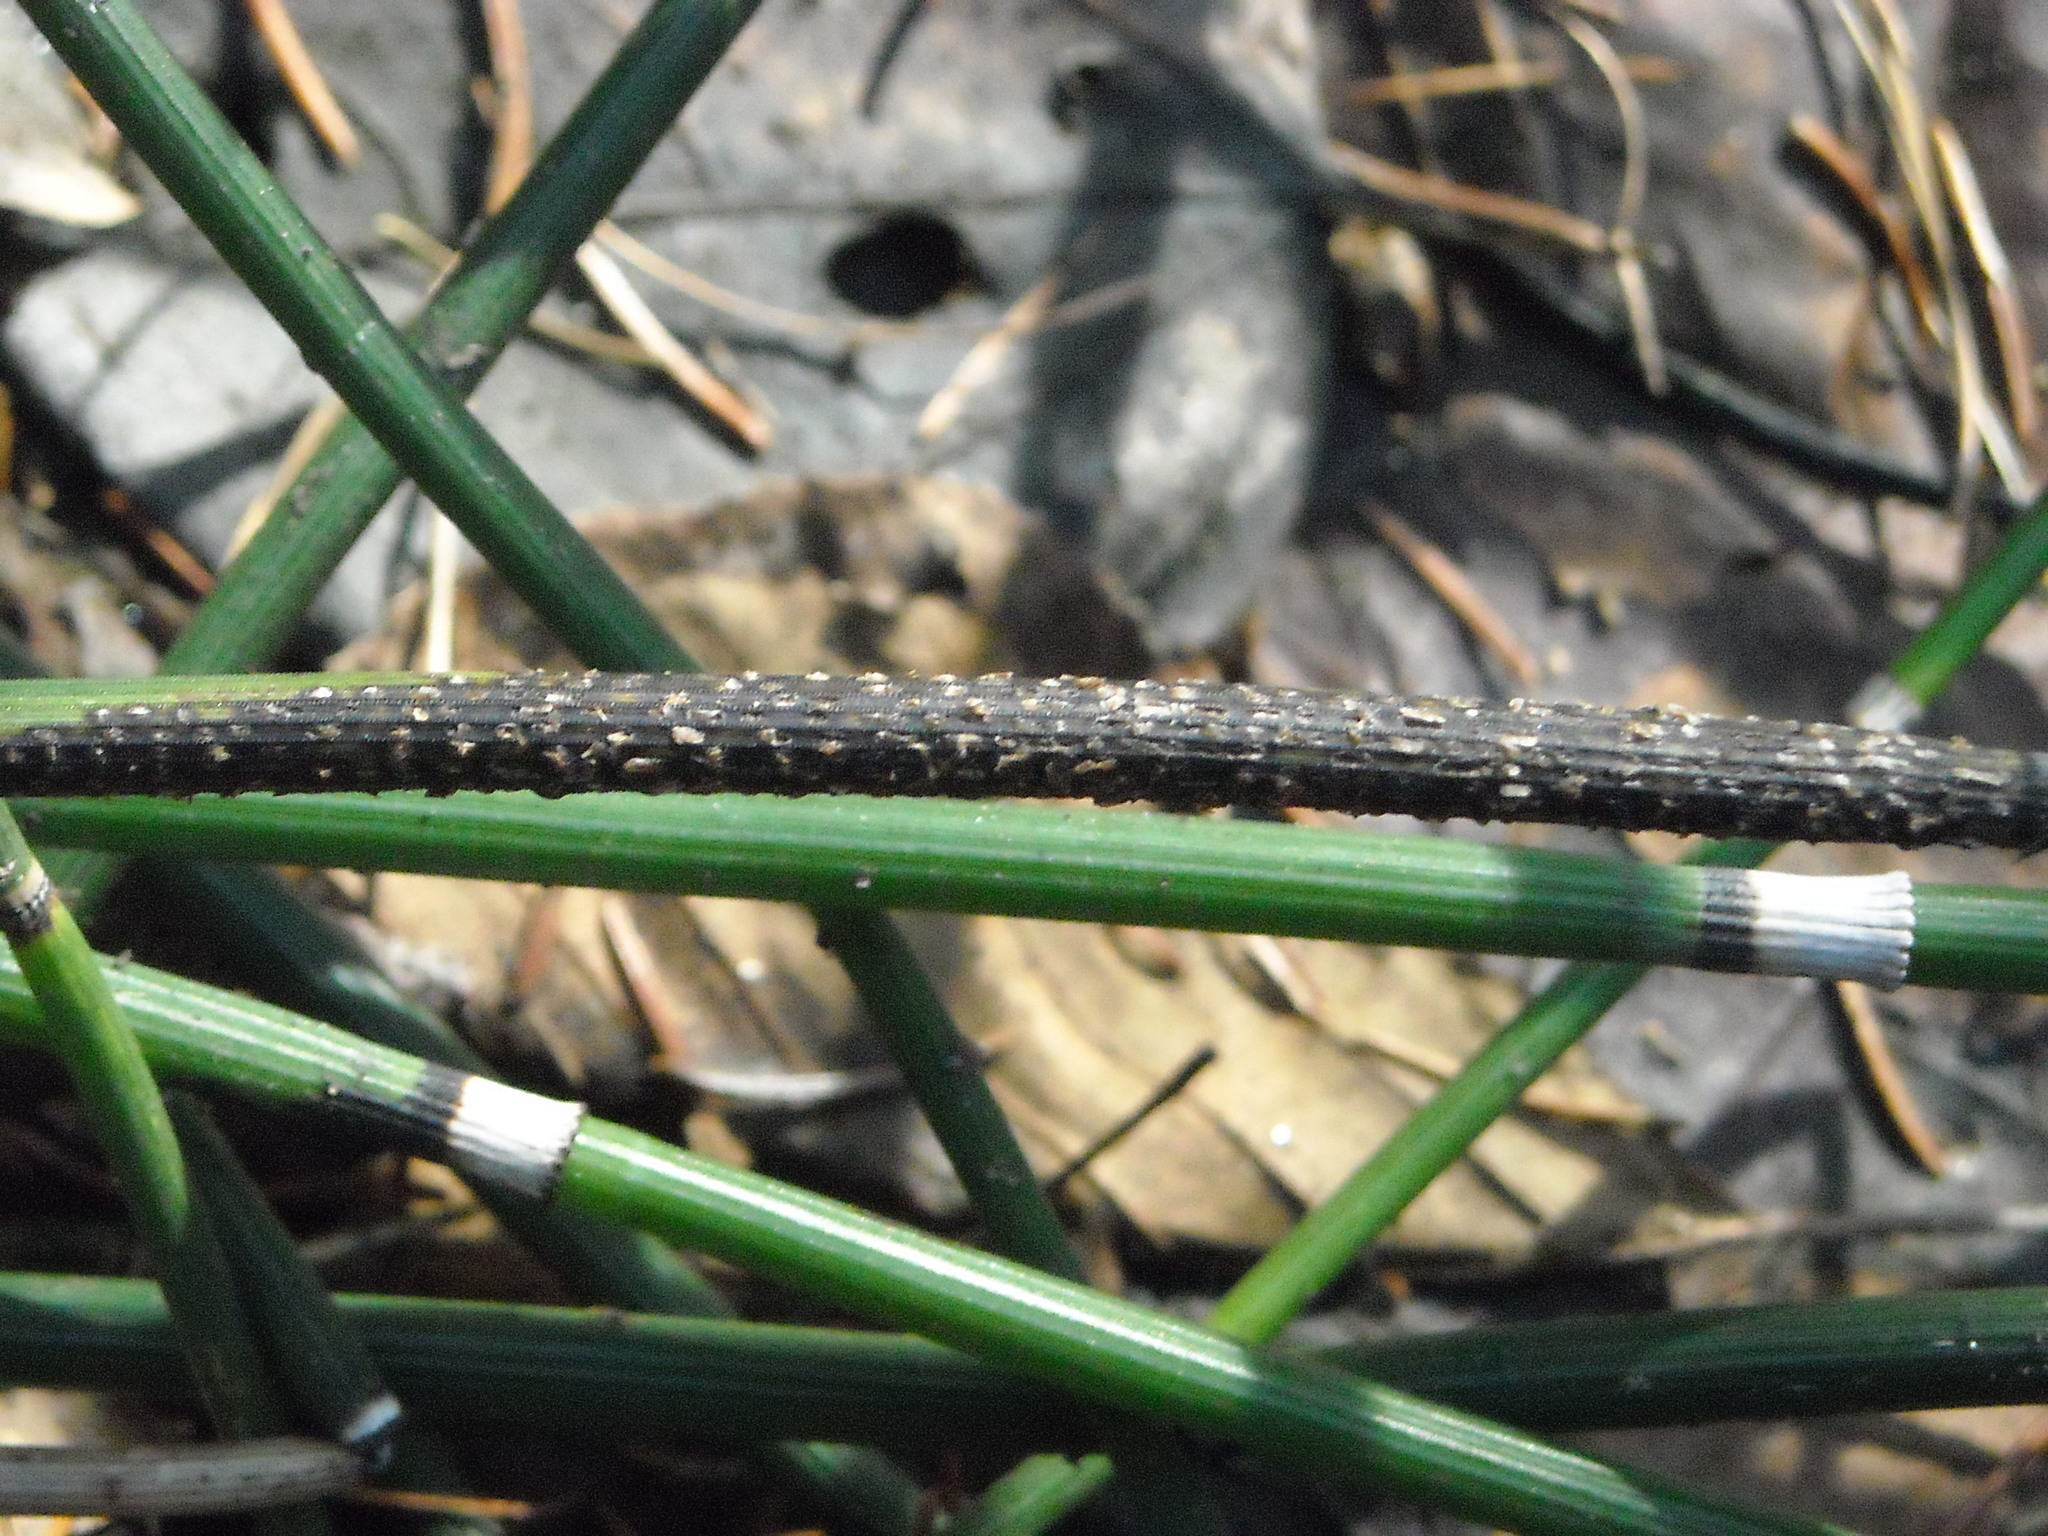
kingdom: Fungi
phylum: Ascomycota
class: Leotiomycetes
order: Helotiales
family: Helotiaceae
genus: Stamnaria
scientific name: Stamnaria americana
